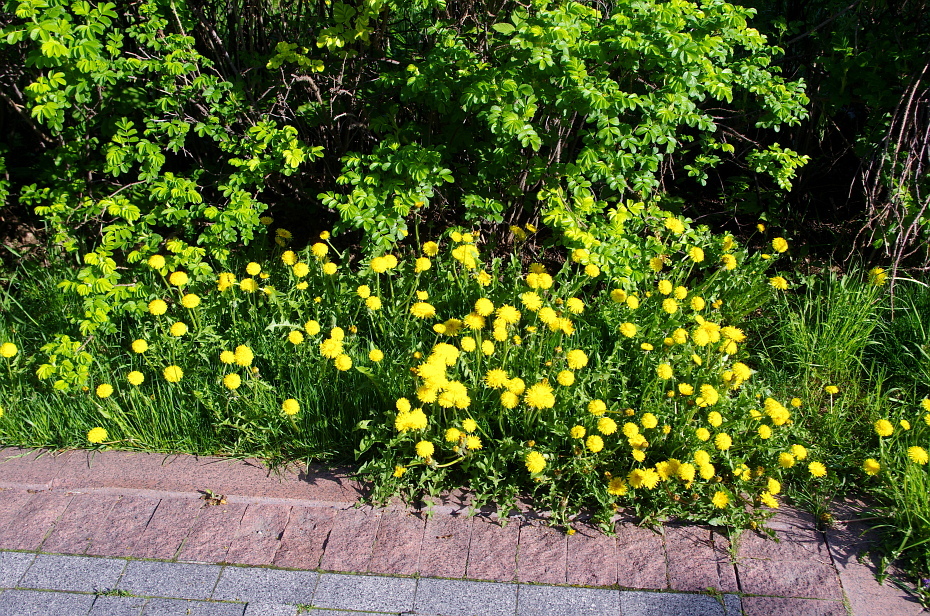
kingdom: Plantae
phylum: Tracheophyta
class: Magnoliopsida
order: Asterales
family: Asteraceae
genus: Taraxacum
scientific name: Taraxacum officinale
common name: Common dandelion
